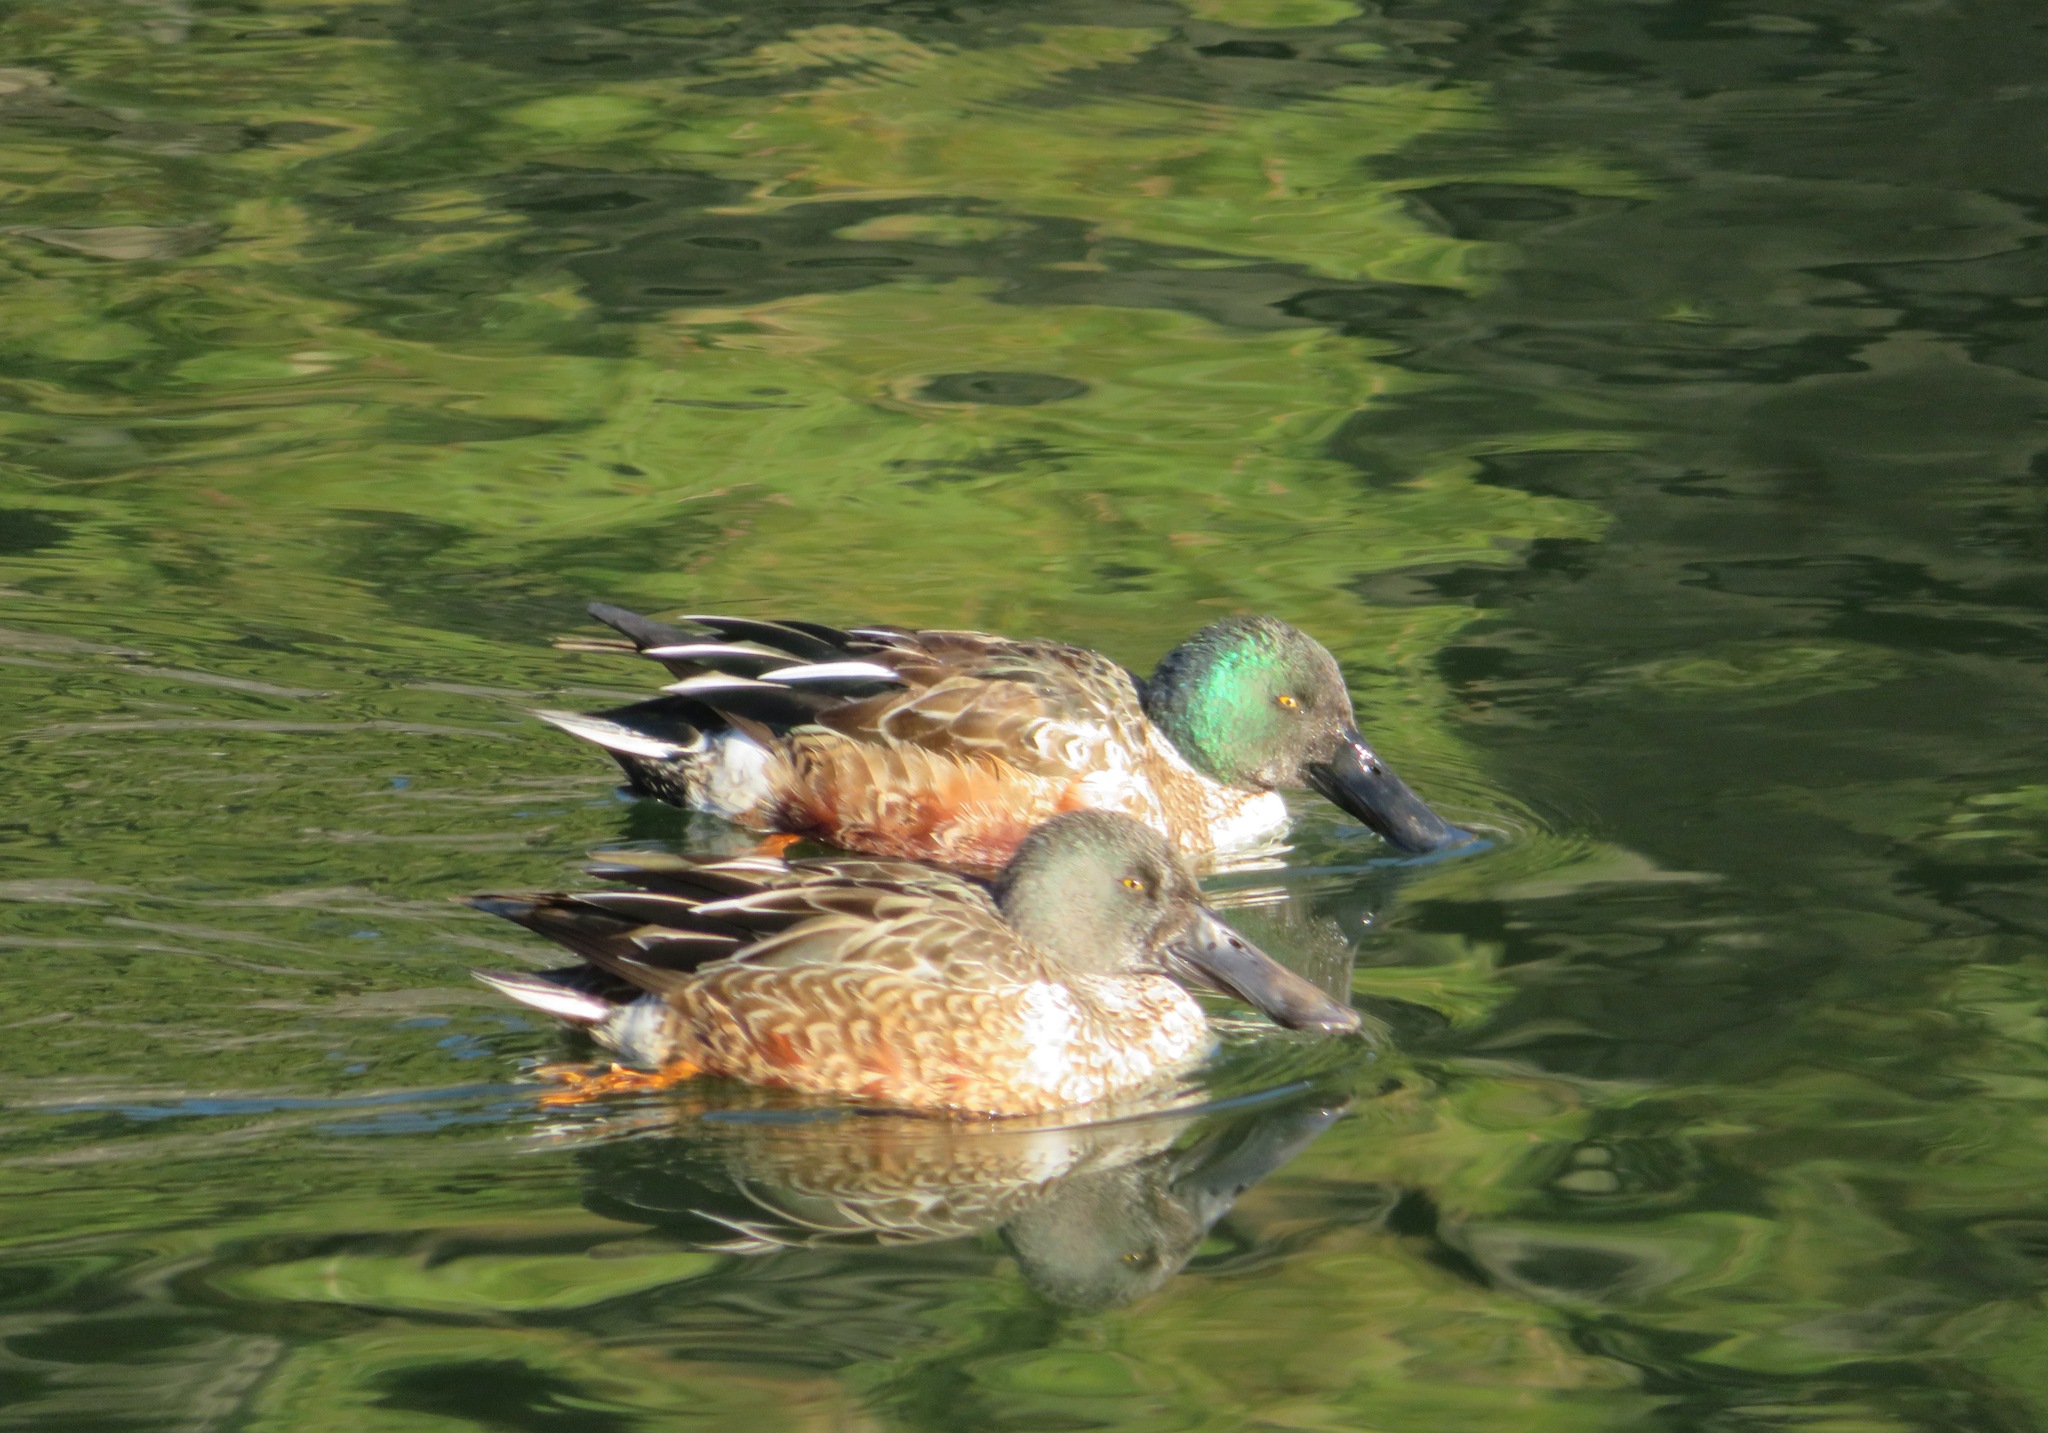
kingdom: Animalia
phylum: Chordata
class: Aves
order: Anseriformes
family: Anatidae
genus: Spatula
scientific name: Spatula clypeata
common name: Northern shoveler
